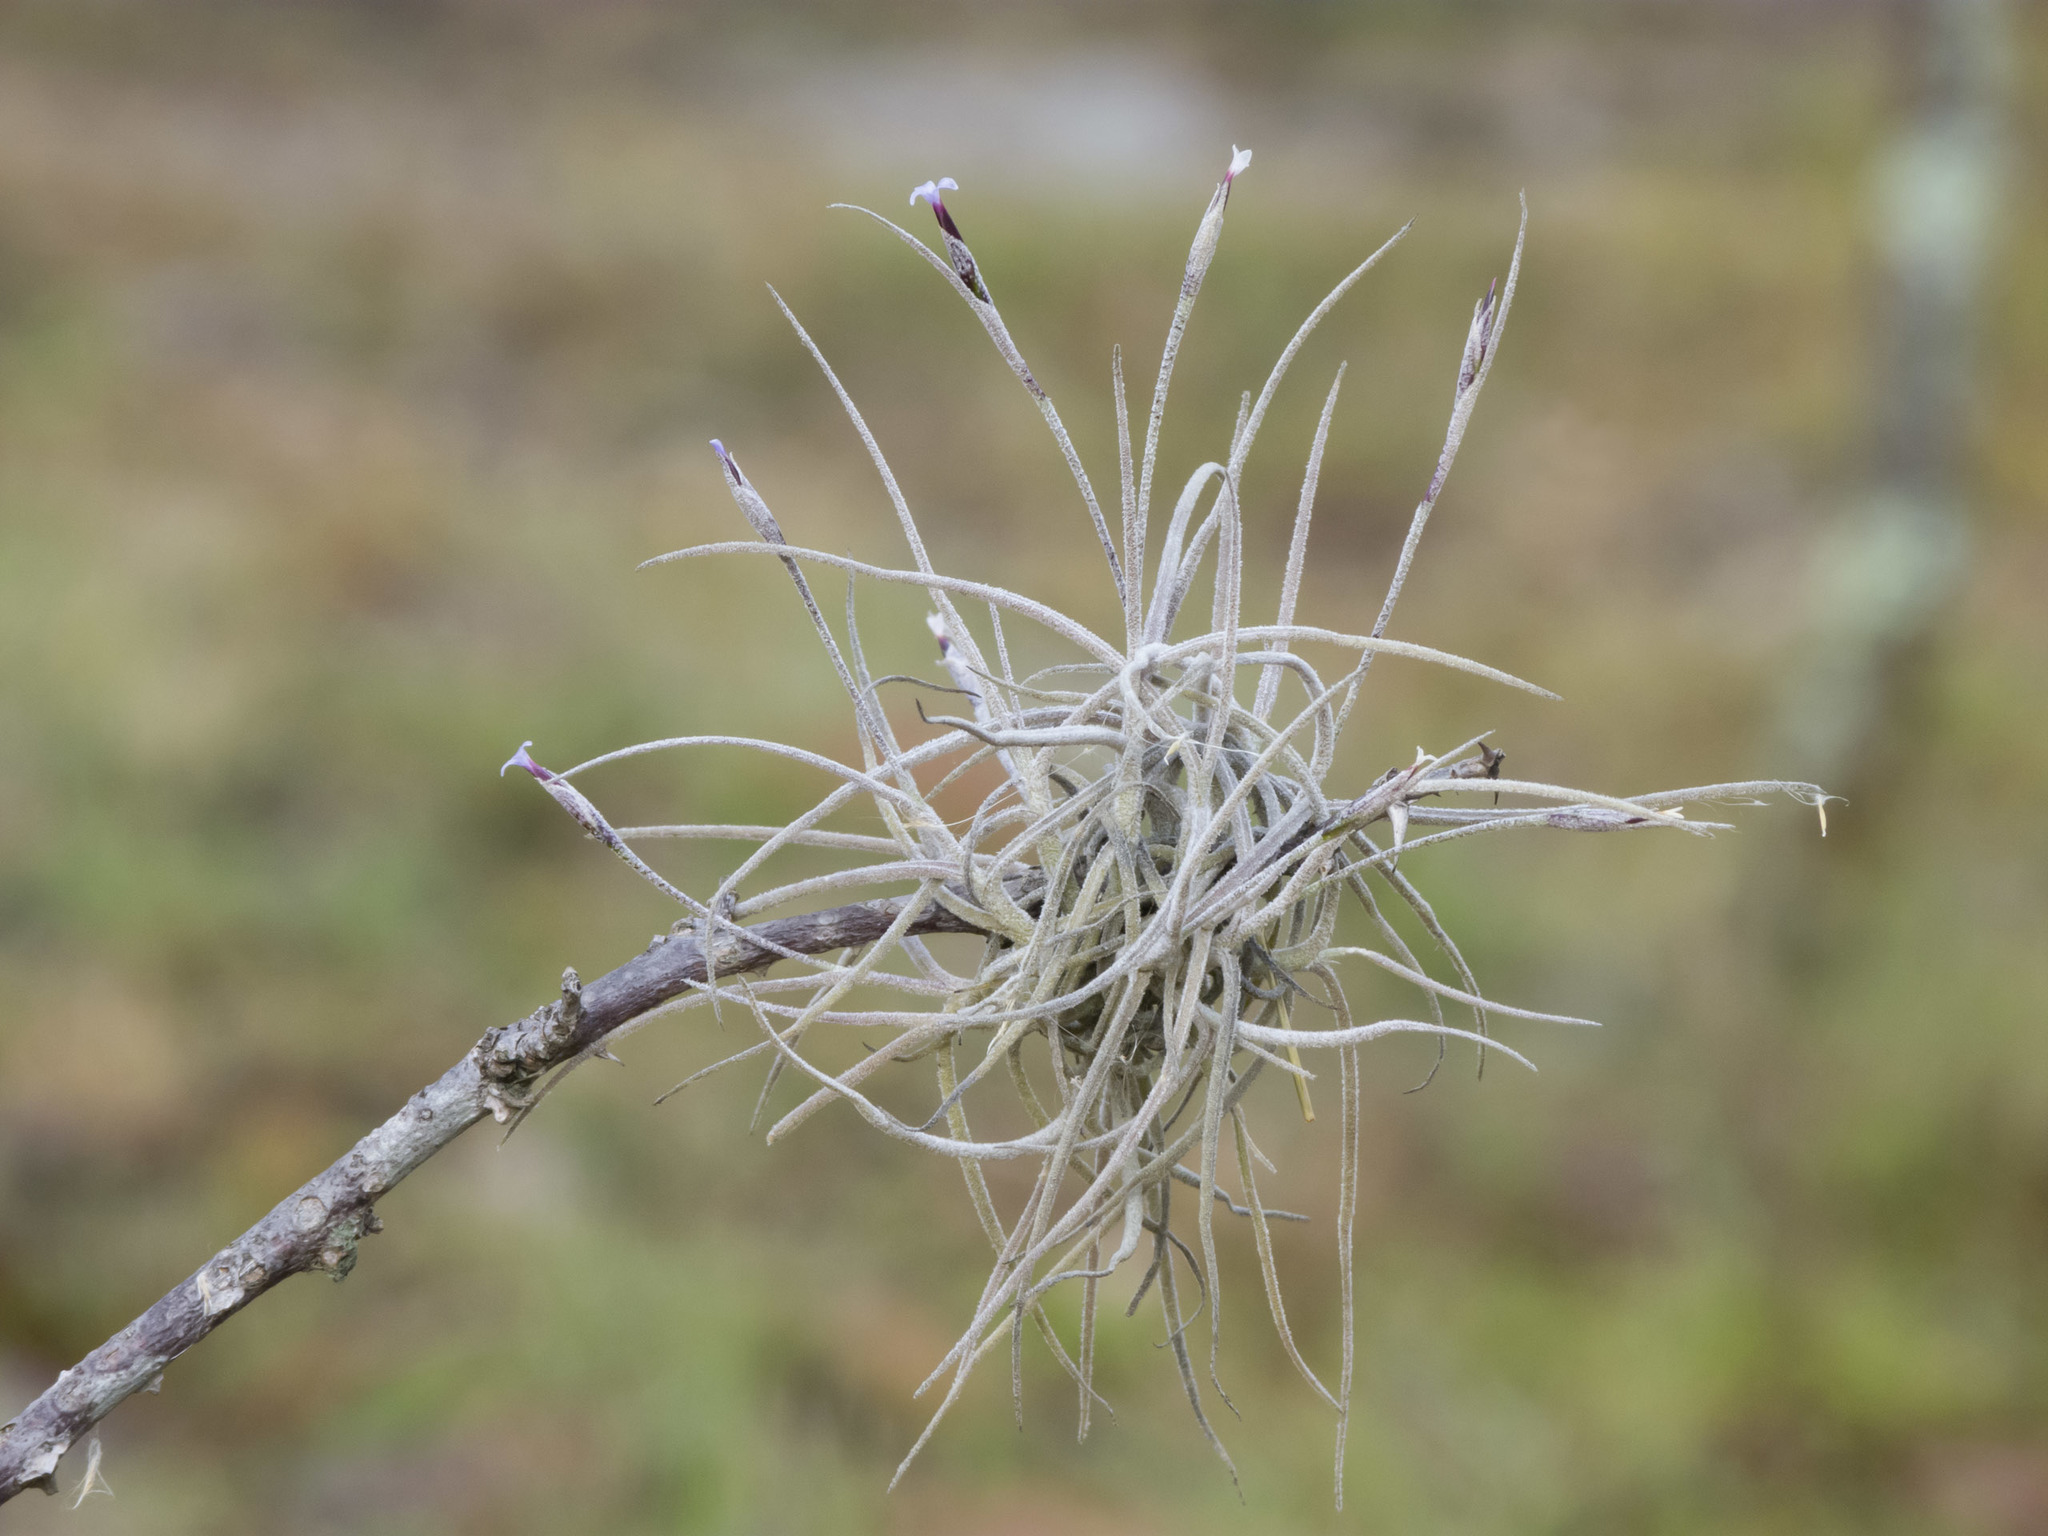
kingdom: Plantae
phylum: Tracheophyta
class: Liliopsida
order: Poales
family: Bromeliaceae
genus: Tillandsia
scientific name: Tillandsia recurvata
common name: Small ballmoss
